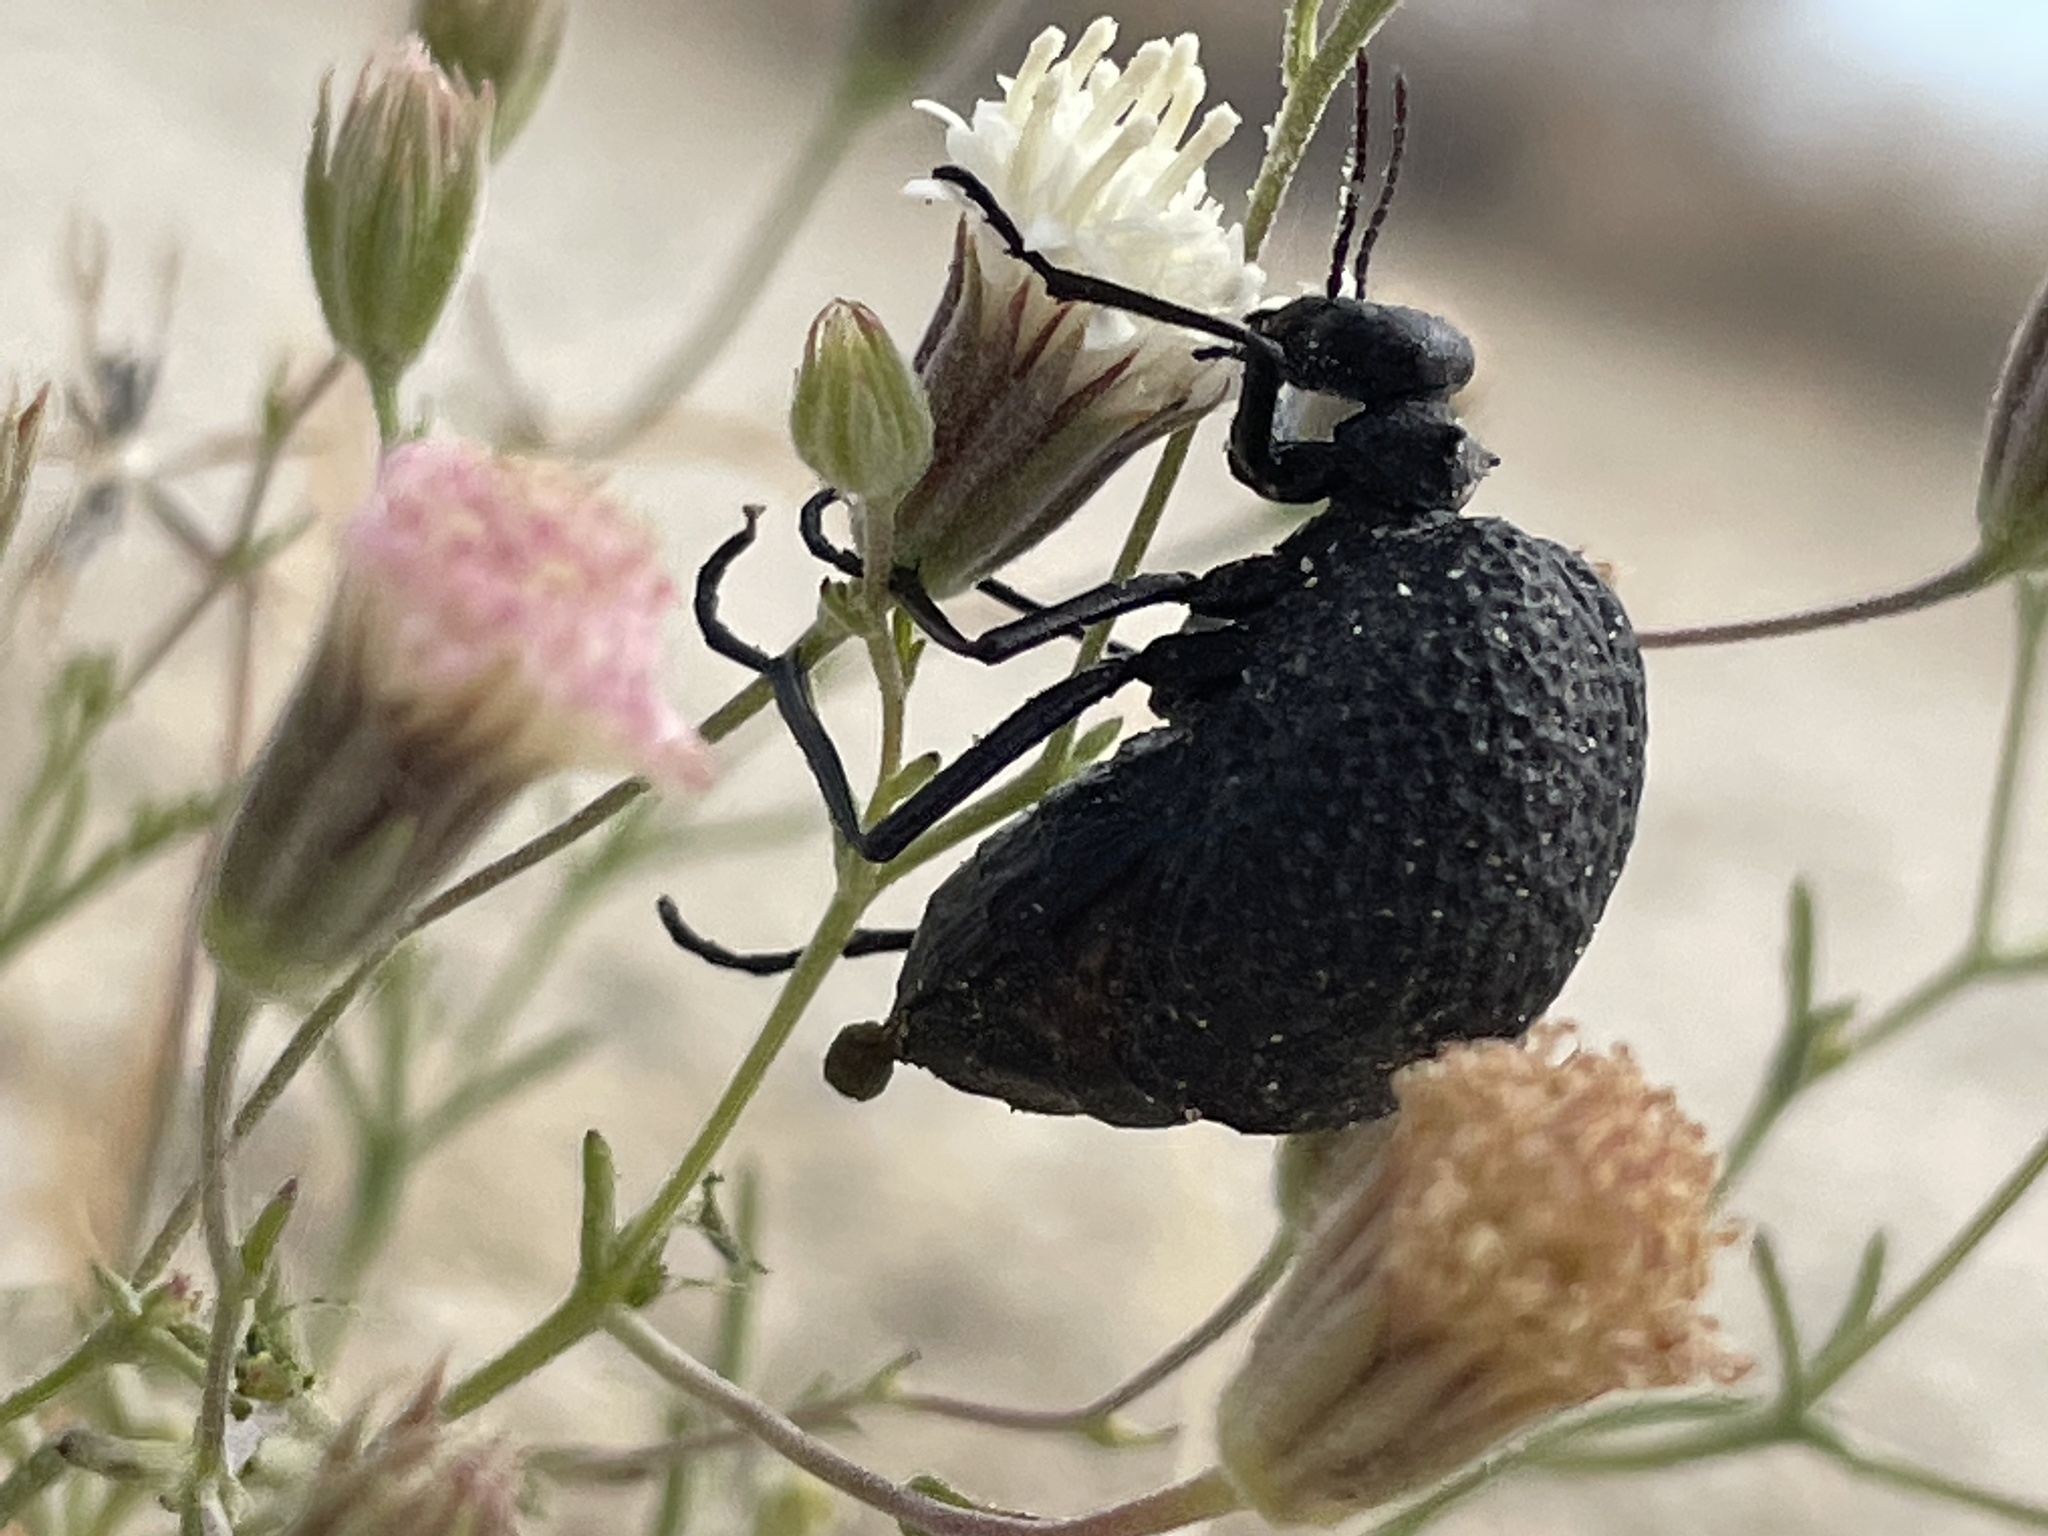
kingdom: Animalia
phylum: Arthropoda
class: Insecta
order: Coleoptera
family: Meloidae
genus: Cysteodemus
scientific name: Cysteodemus armatus
